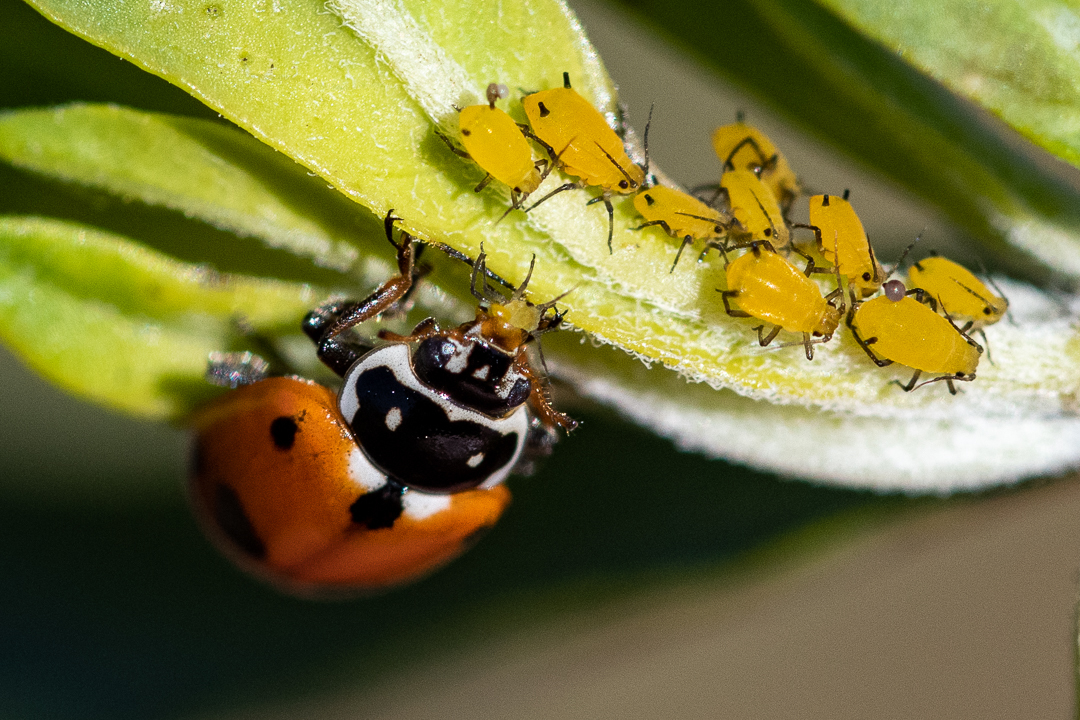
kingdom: Animalia
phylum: Arthropoda
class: Insecta
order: Coleoptera
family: Coccinellidae
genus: Hippodamia
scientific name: Hippodamia variegata
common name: Ladybird beetle
